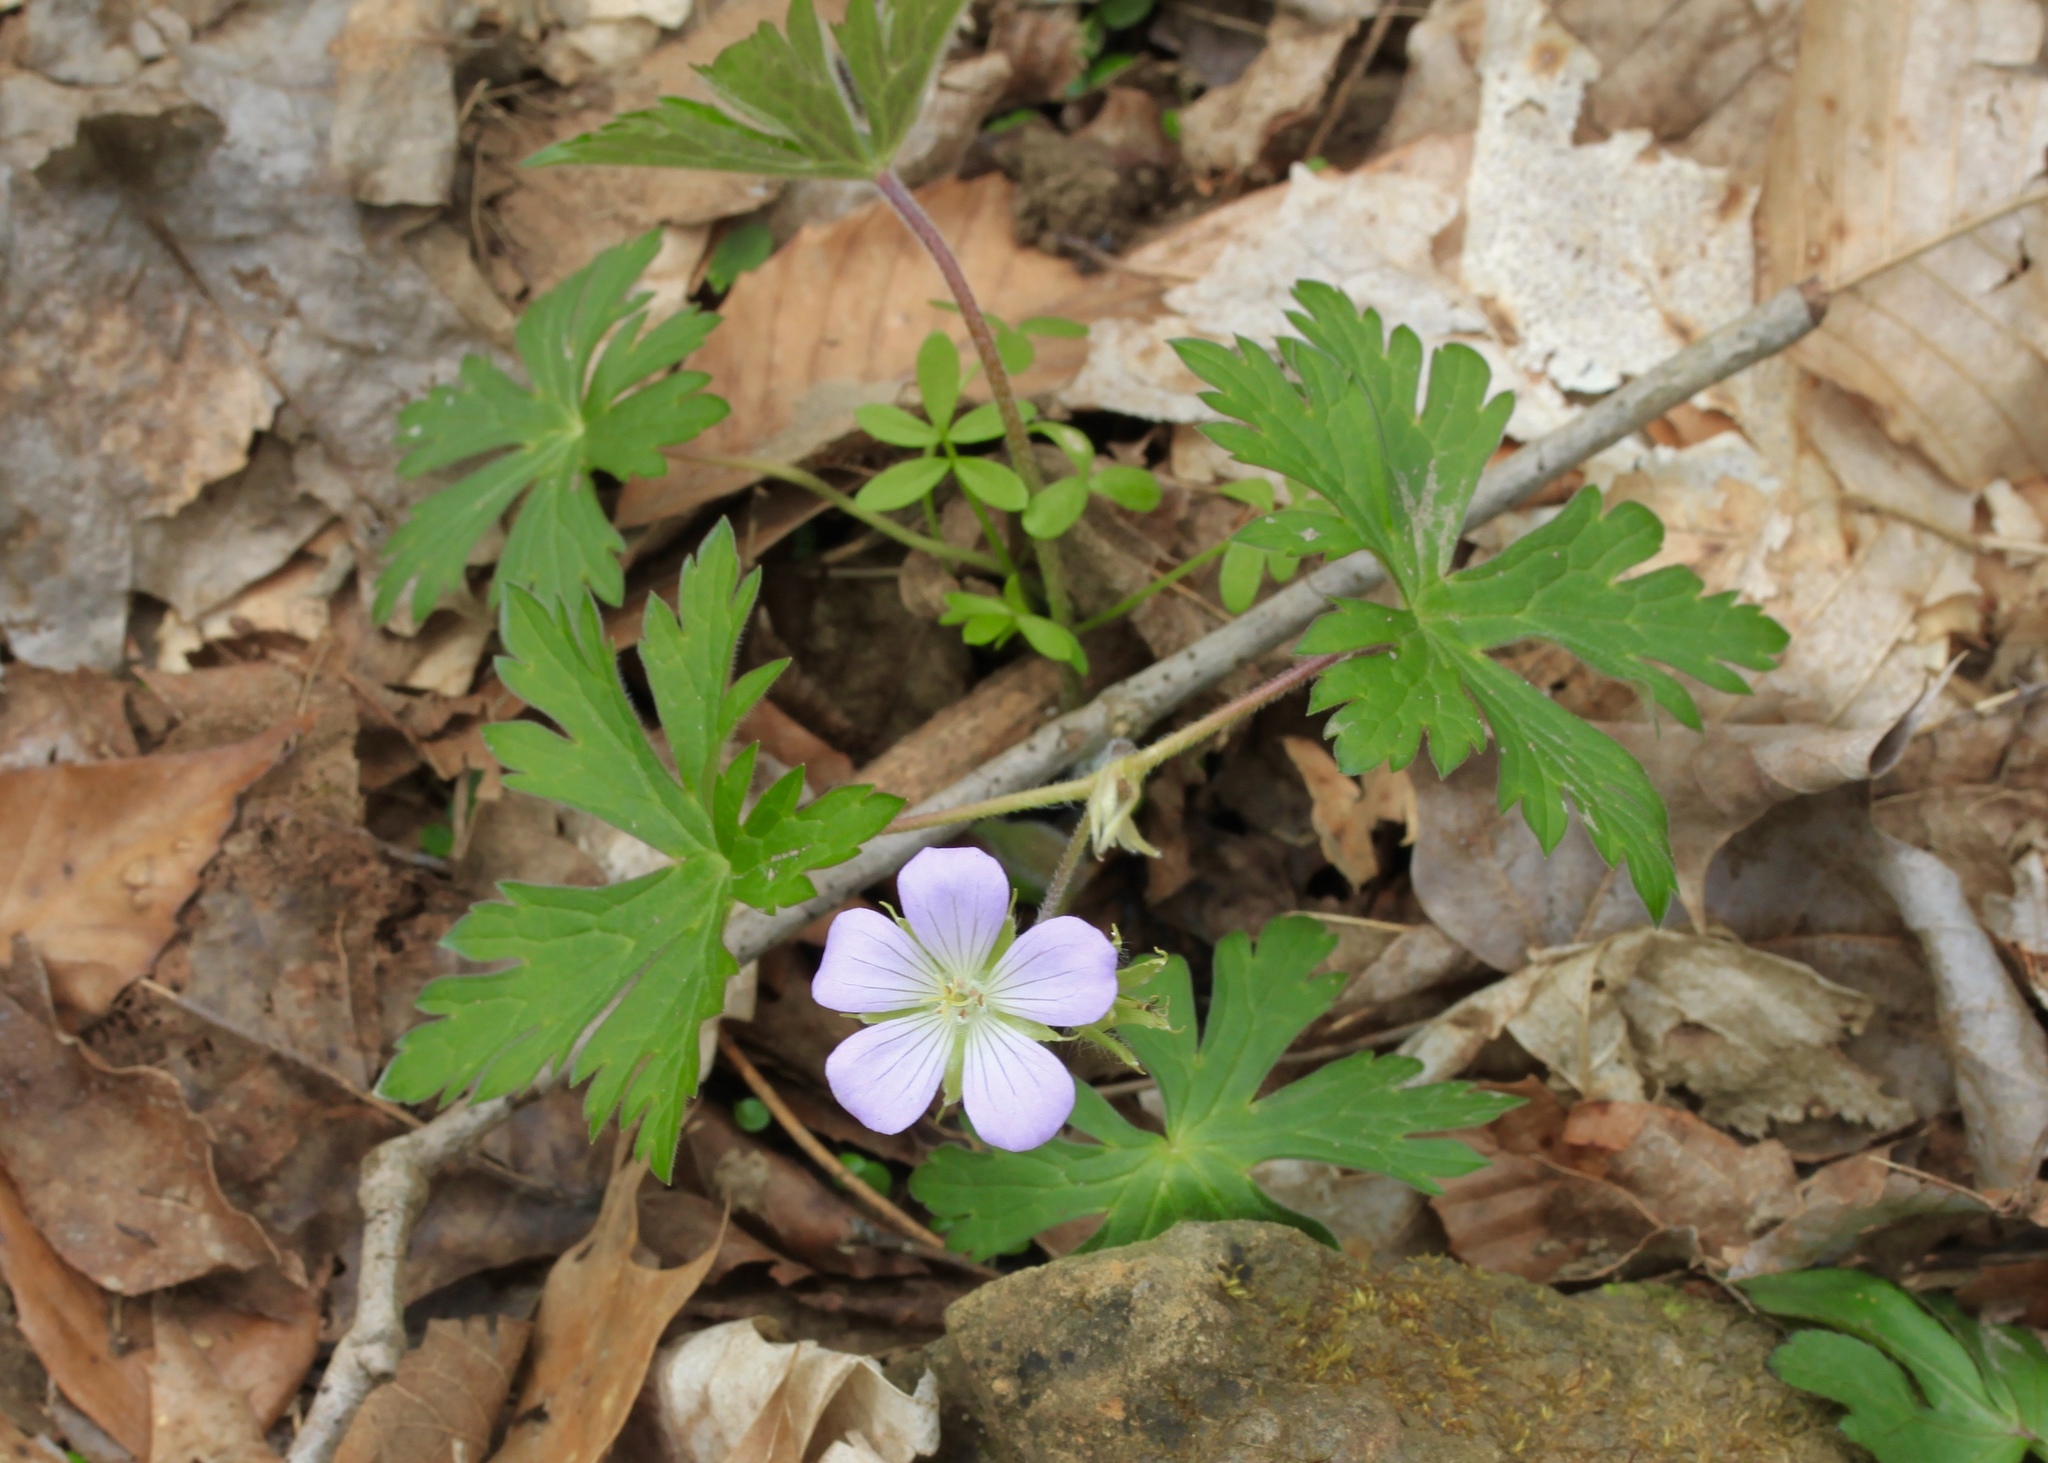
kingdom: Plantae
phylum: Tracheophyta
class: Magnoliopsida
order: Geraniales
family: Geraniaceae
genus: Geranium
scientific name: Geranium maculatum
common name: Spotted geranium
